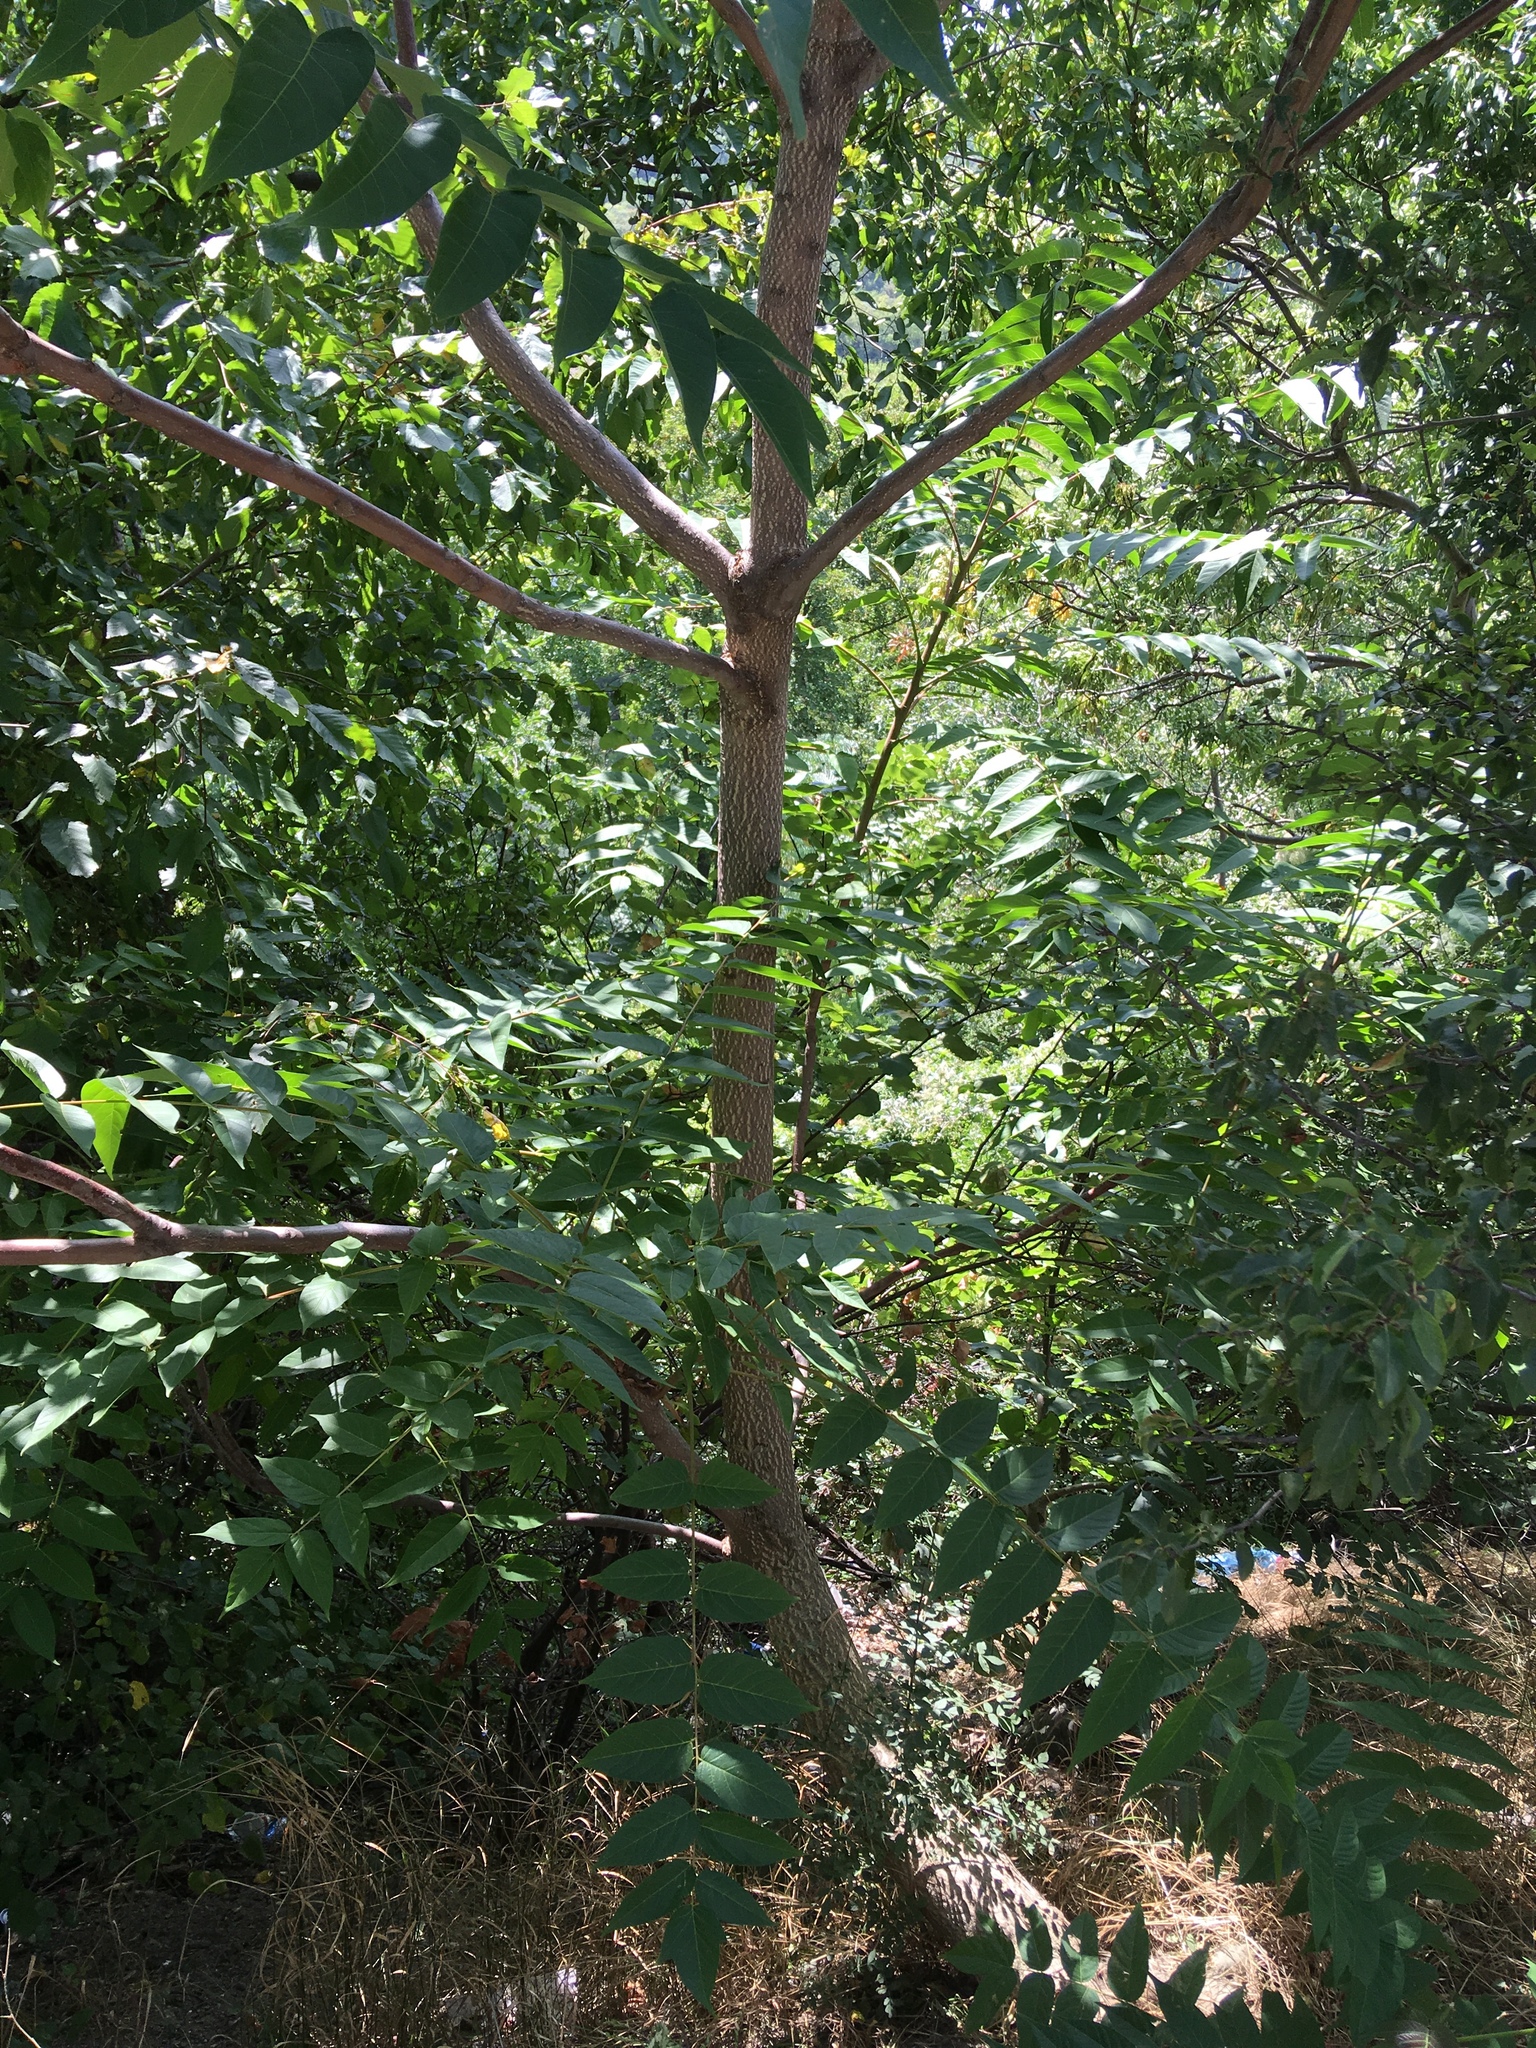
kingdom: Plantae
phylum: Tracheophyta
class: Magnoliopsida
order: Sapindales
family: Simaroubaceae
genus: Ailanthus
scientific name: Ailanthus altissima
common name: Tree-of-heaven
